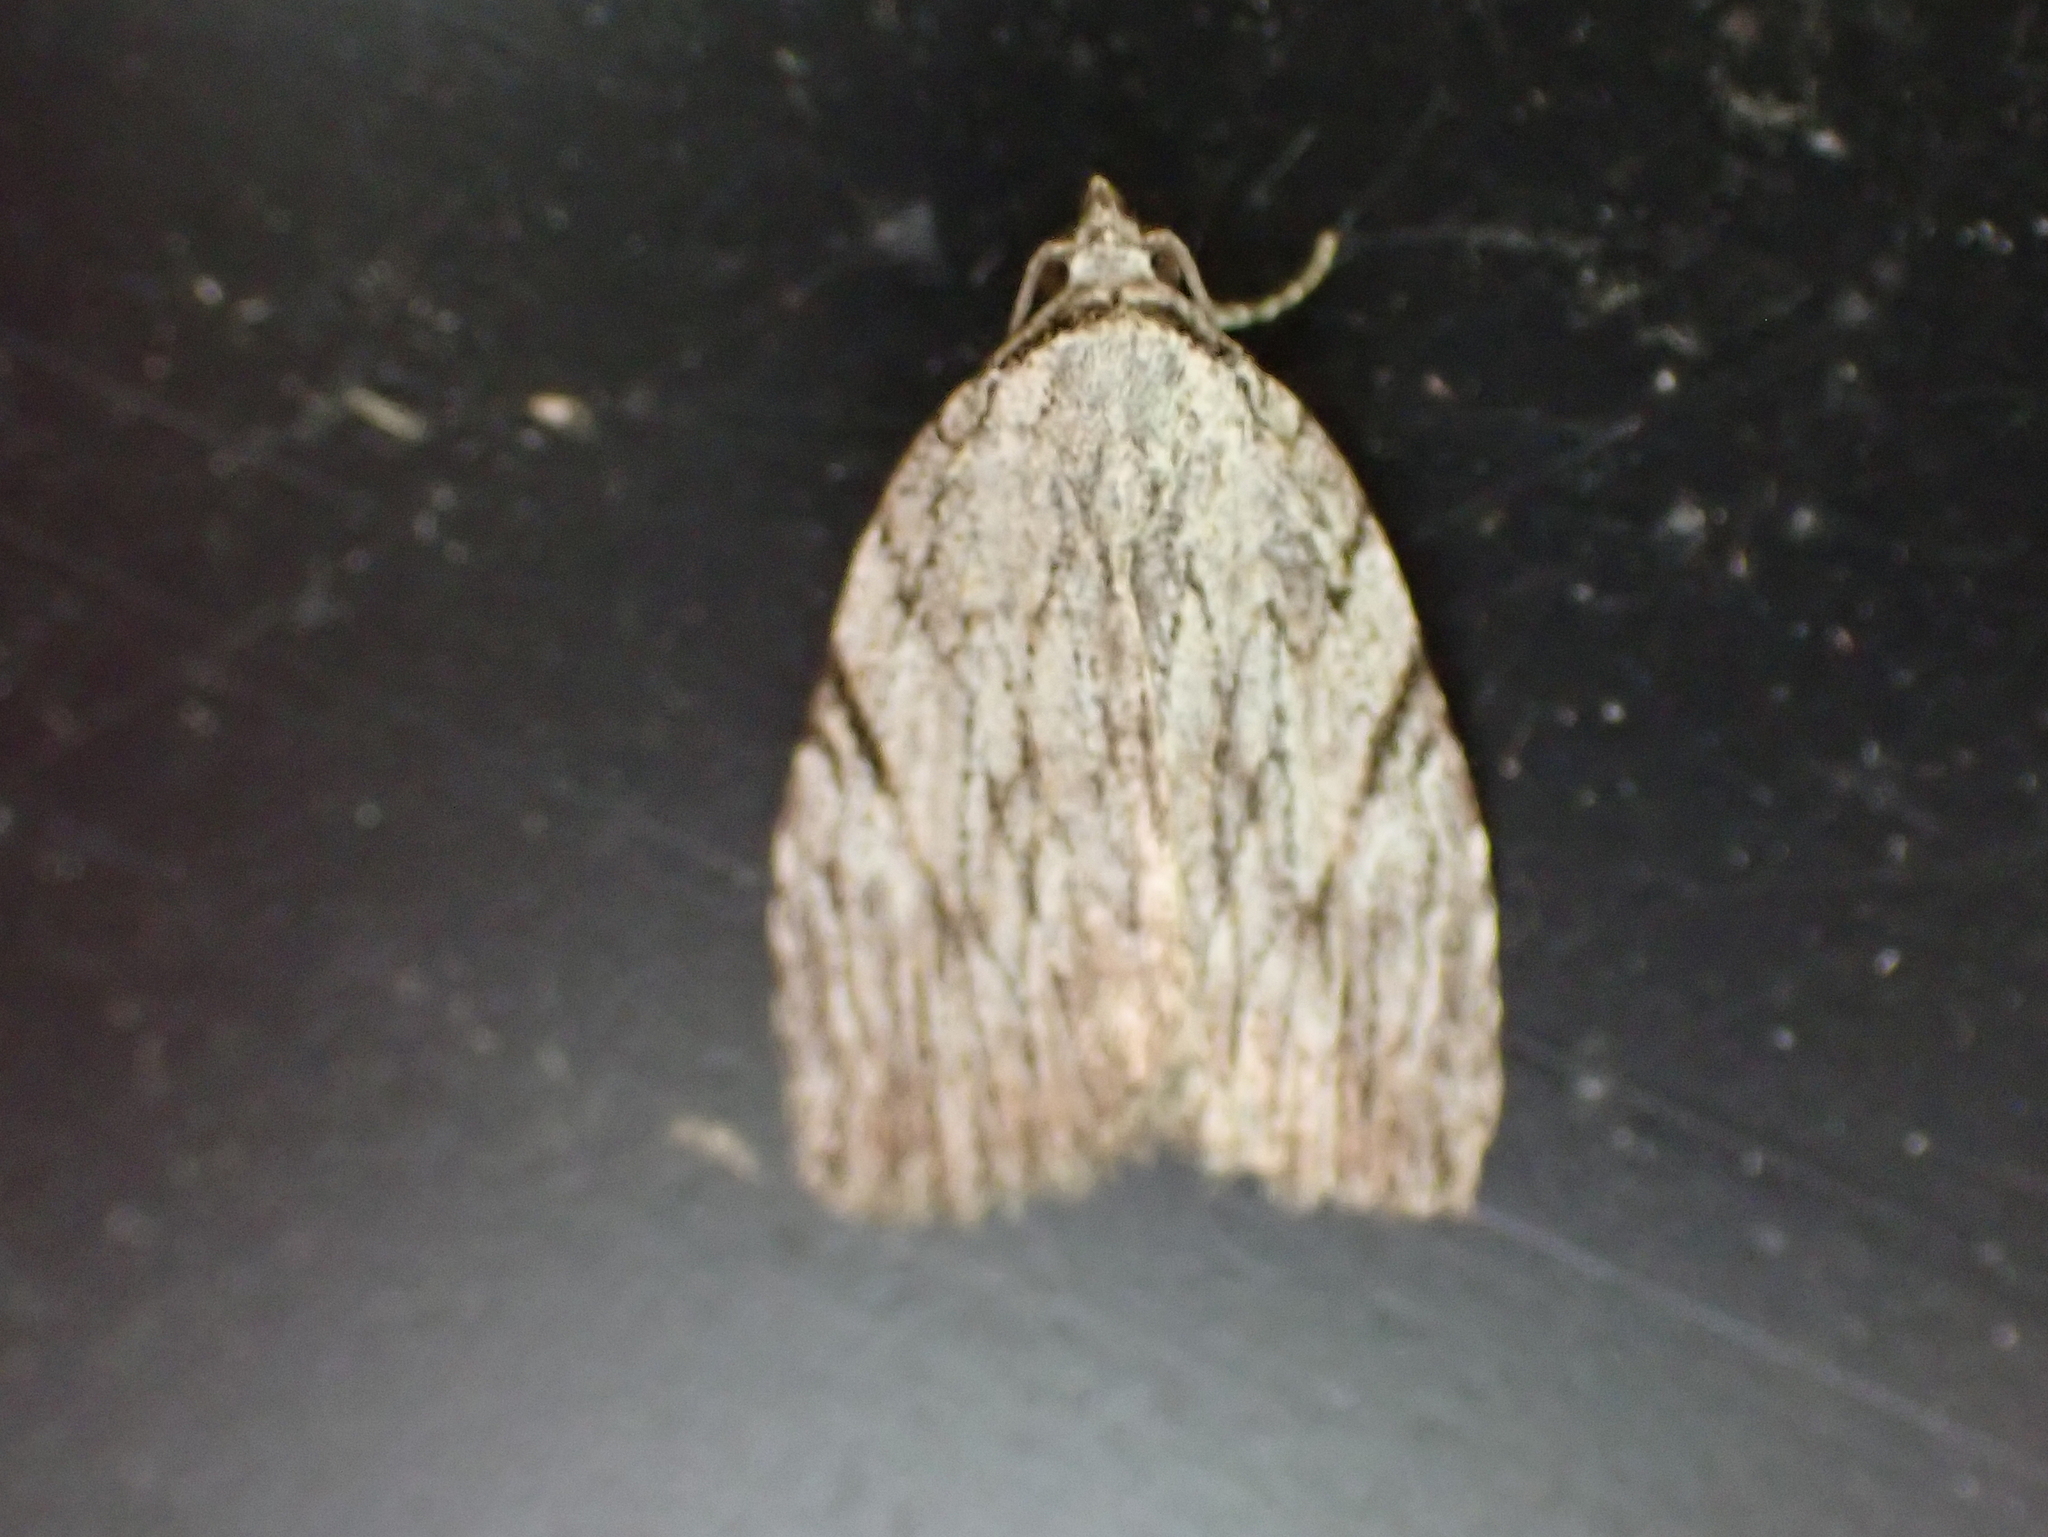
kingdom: Animalia
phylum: Arthropoda
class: Insecta
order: Lepidoptera
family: Noctuidae
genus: Balsa
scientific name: Balsa tristrigella
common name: Three-lined balsa moth
